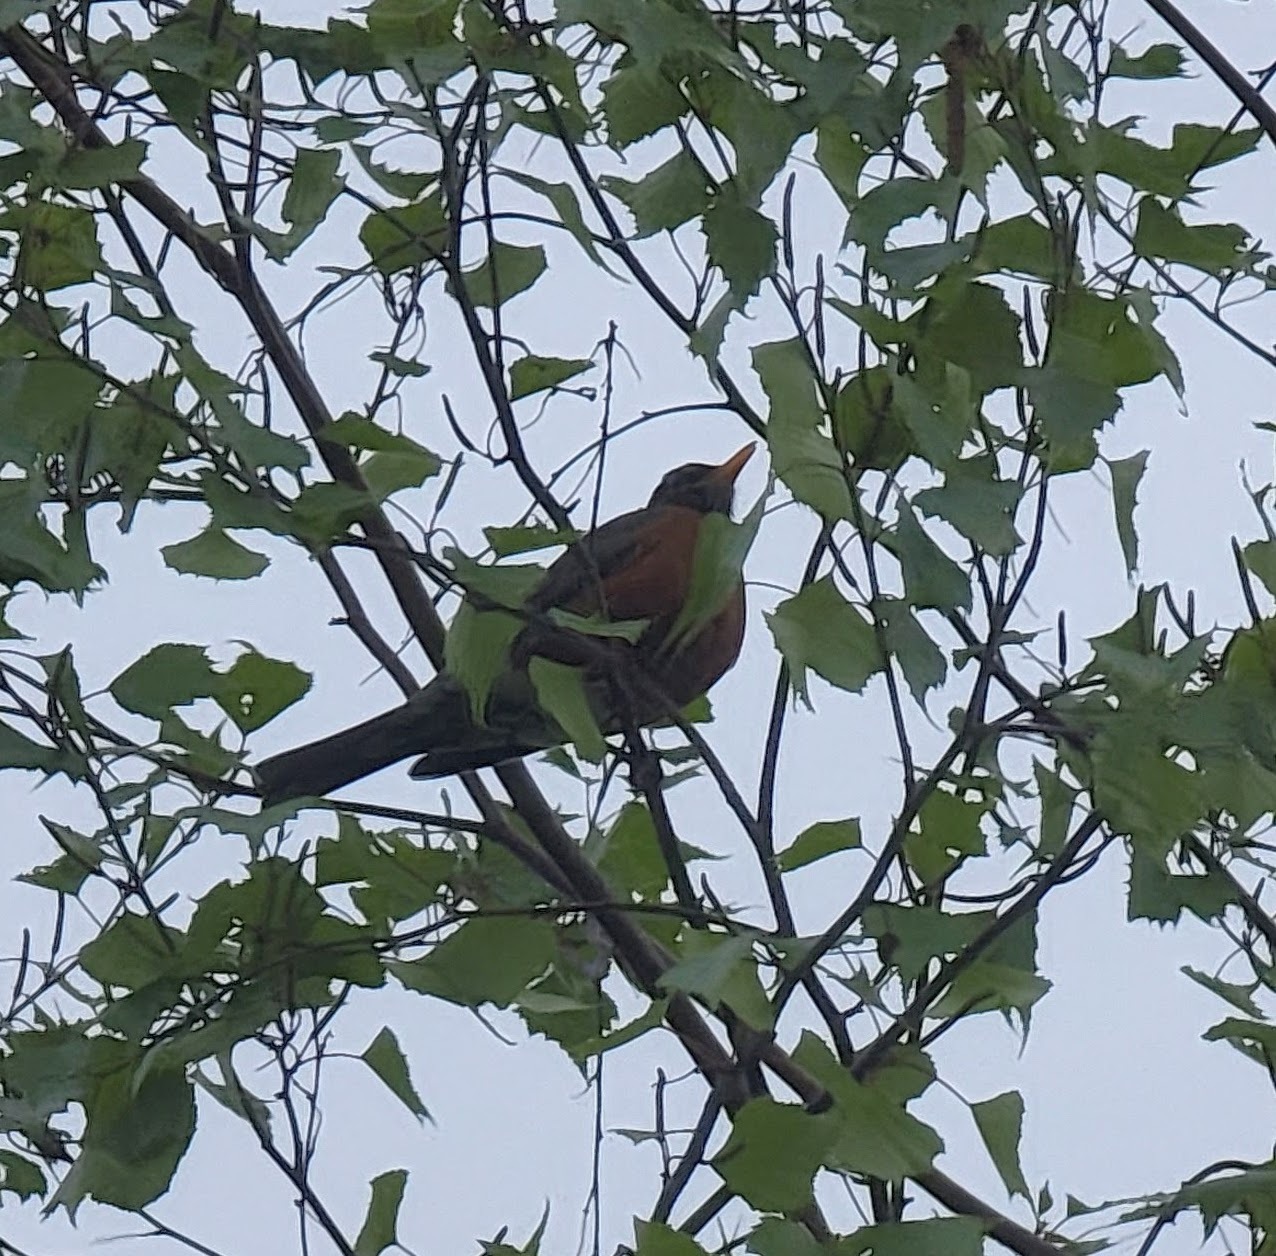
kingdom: Animalia
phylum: Chordata
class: Aves
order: Passeriformes
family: Turdidae
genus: Turdus
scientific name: Turdus migratorius
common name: American robin
